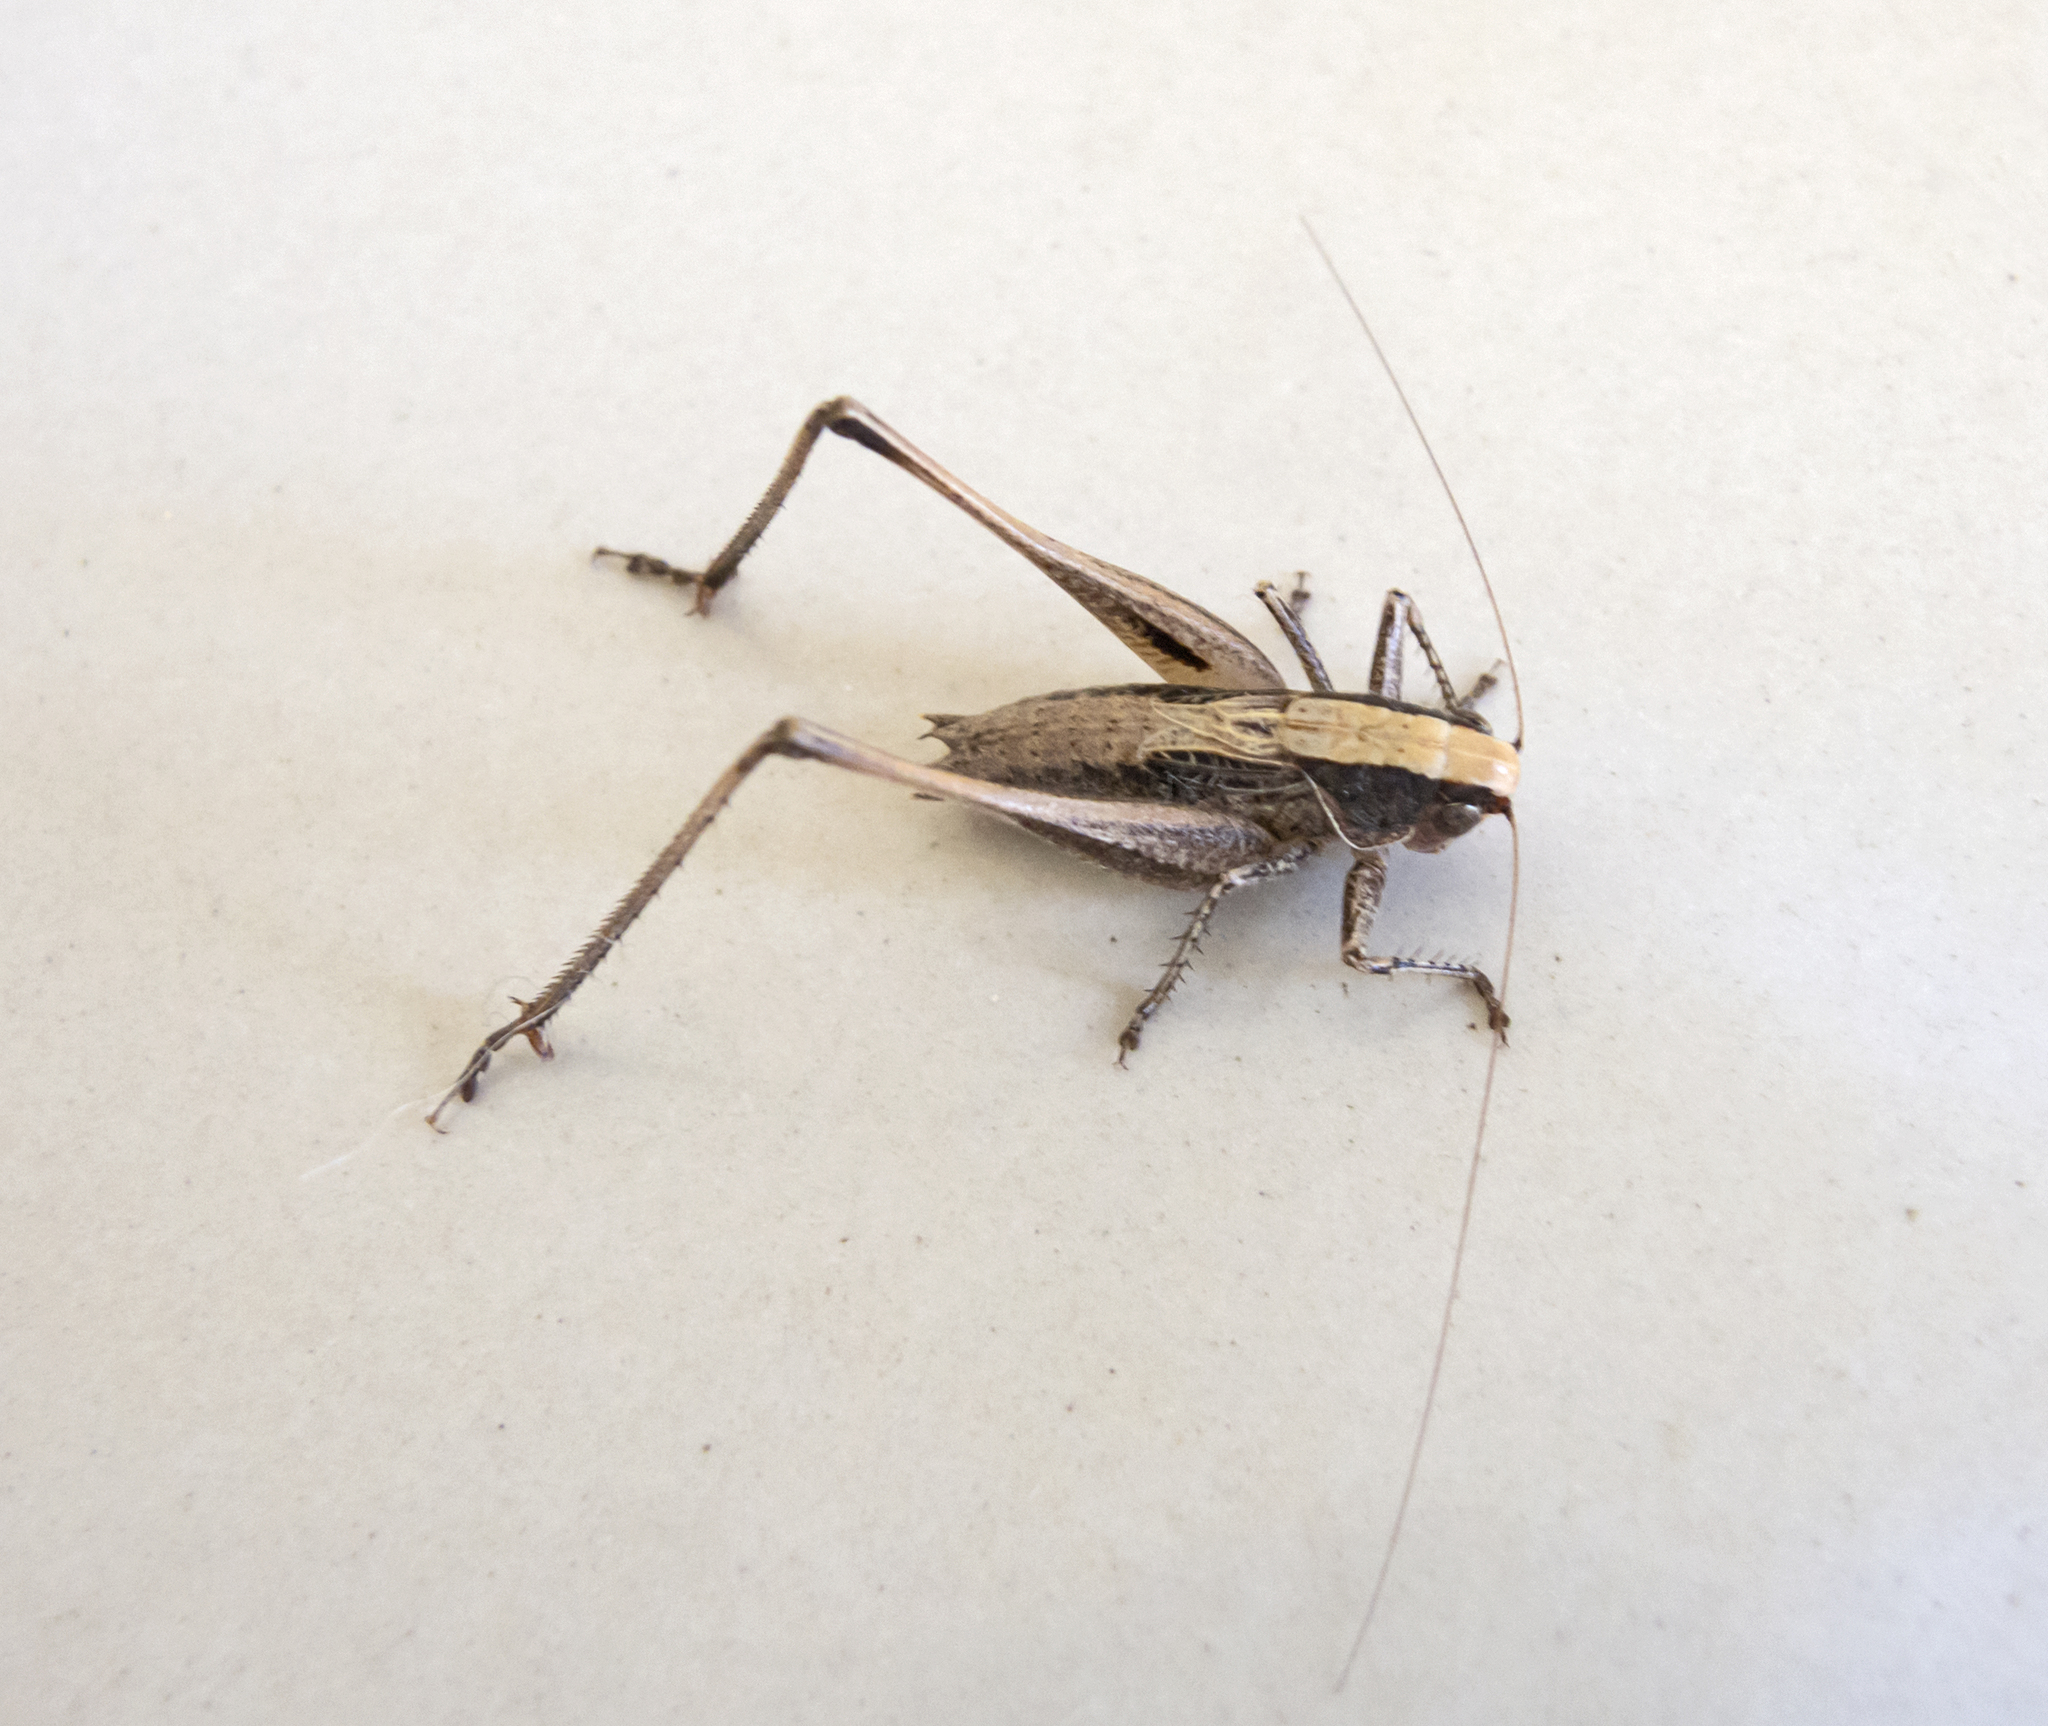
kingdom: Animalia
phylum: Arthropoda
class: Insecta
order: Orthoptera
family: Tettigoniidae
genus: Incertana
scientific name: Incertana incerta
